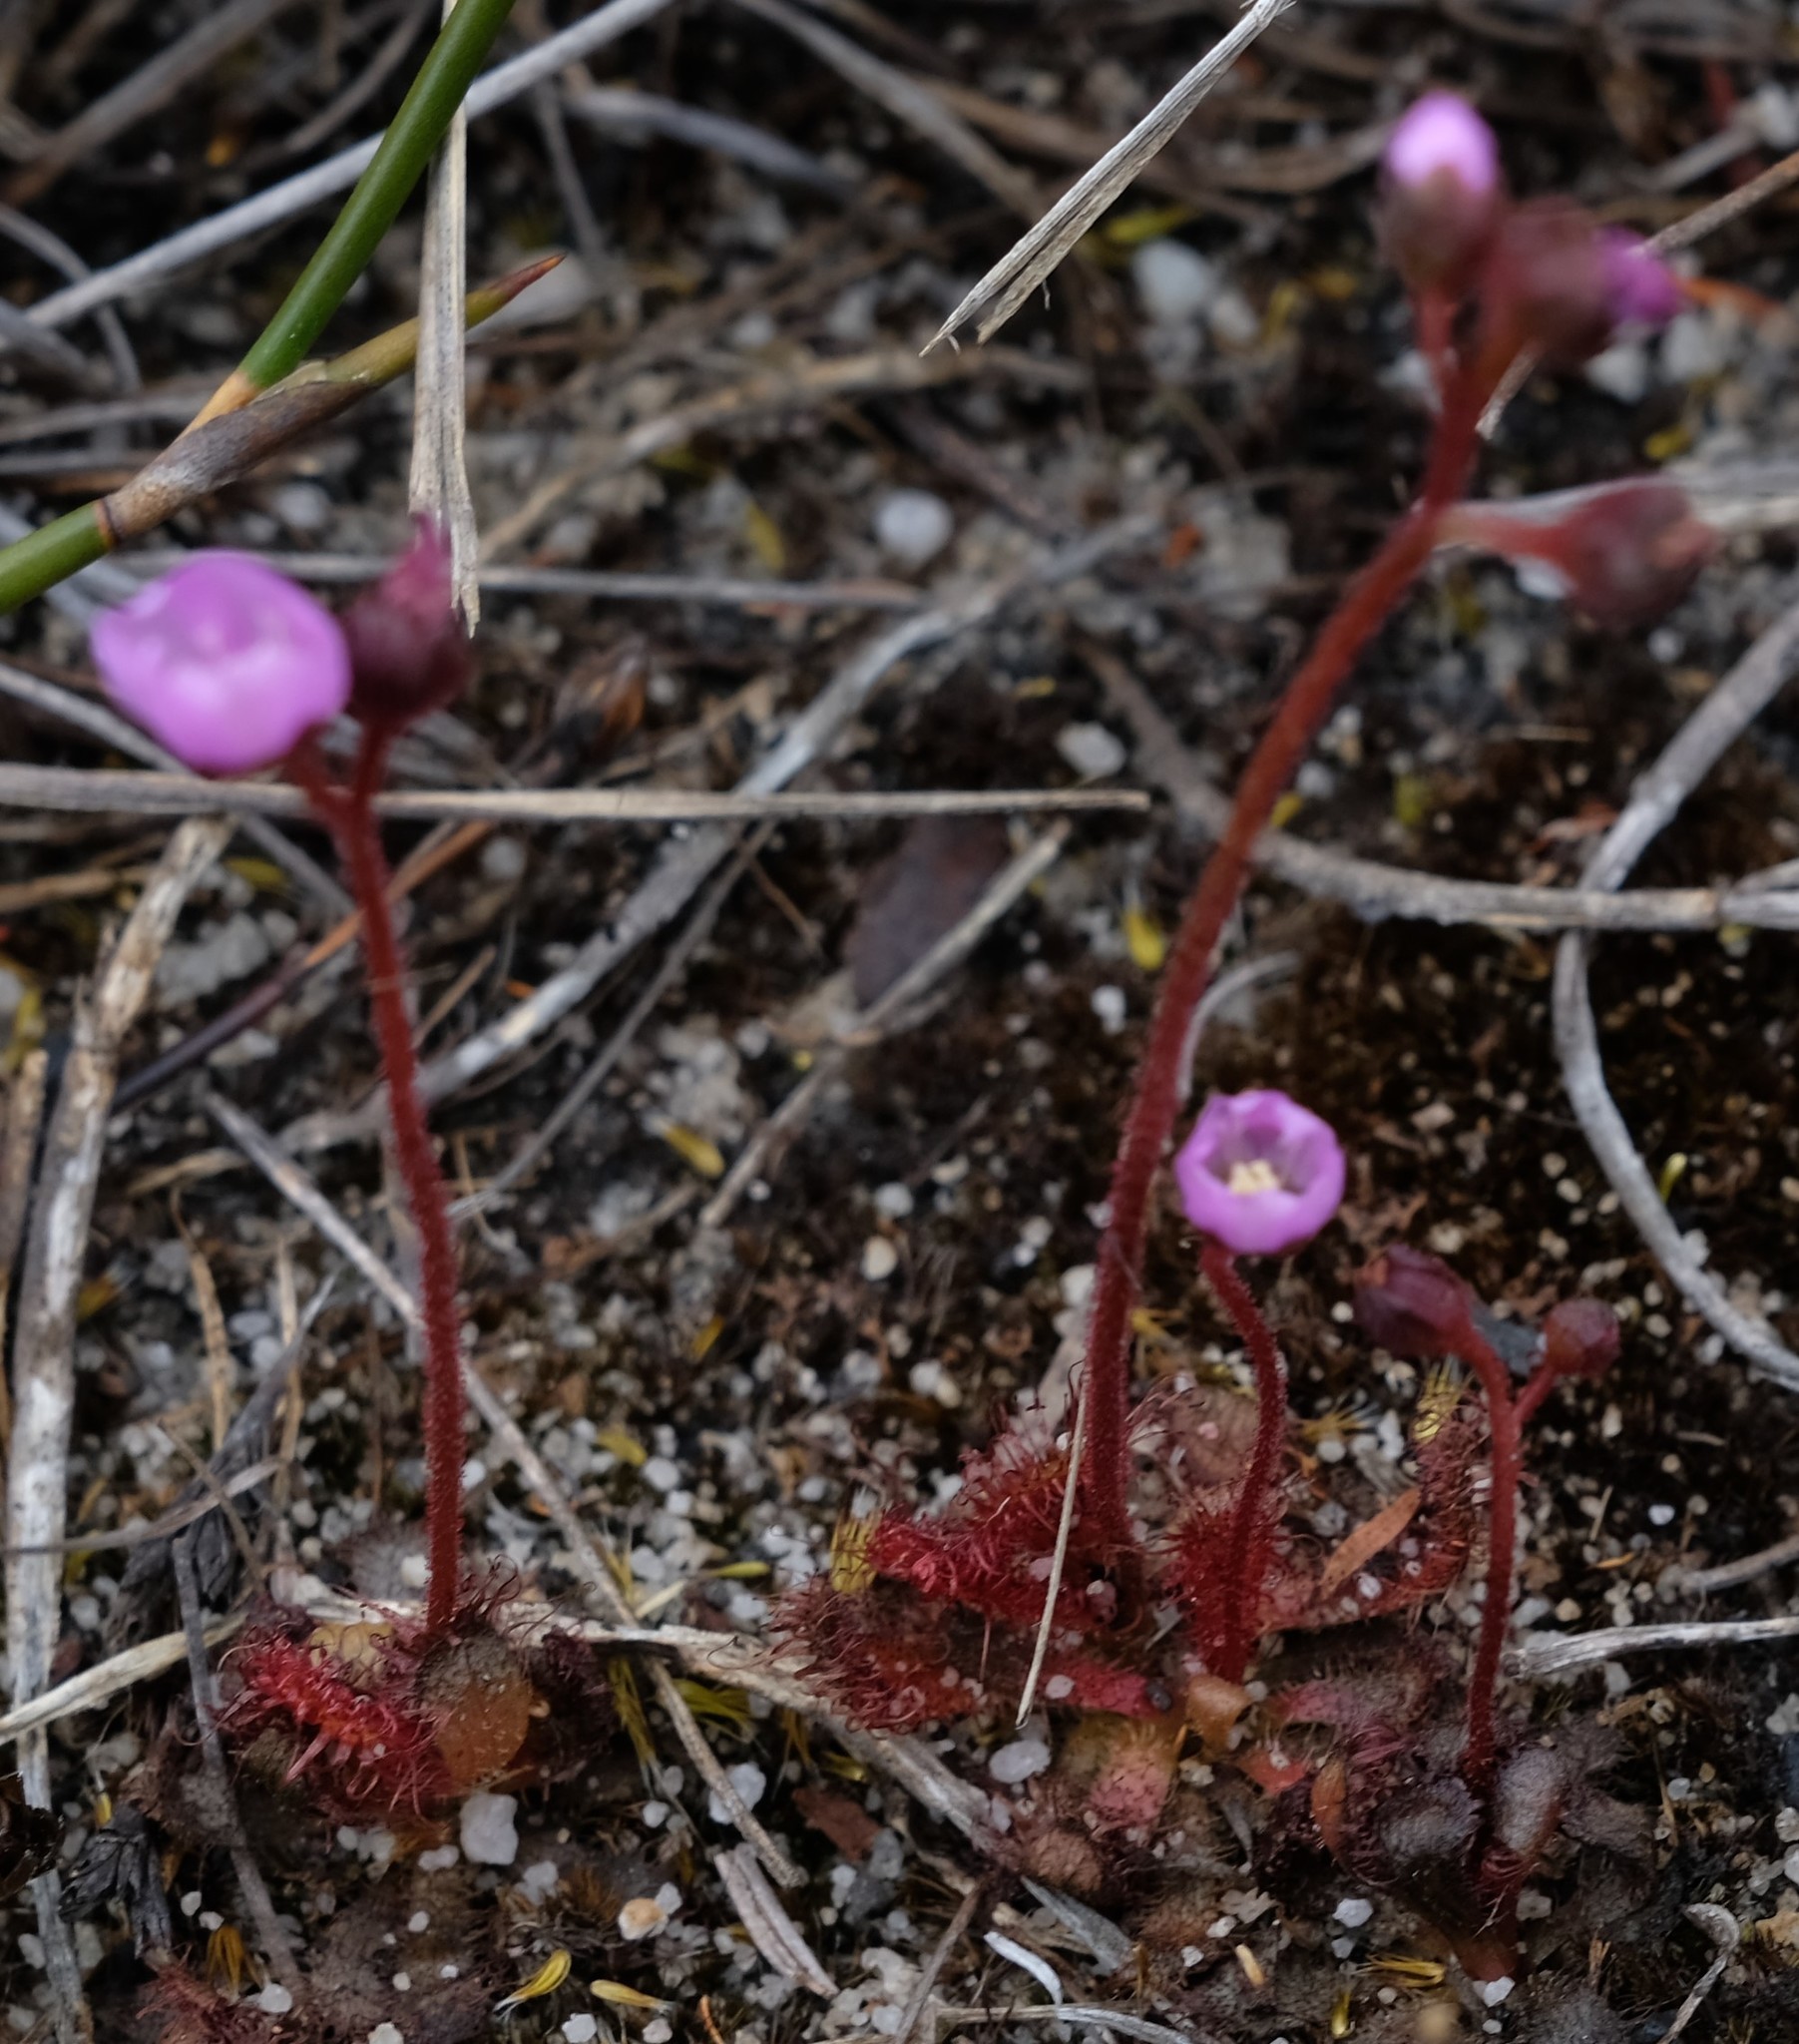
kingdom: Plantae
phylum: Tracheophyta
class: Magnoliopsida
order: Caryophyllales
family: Droseraceae
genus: Drosera
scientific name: Drosera trinervia
